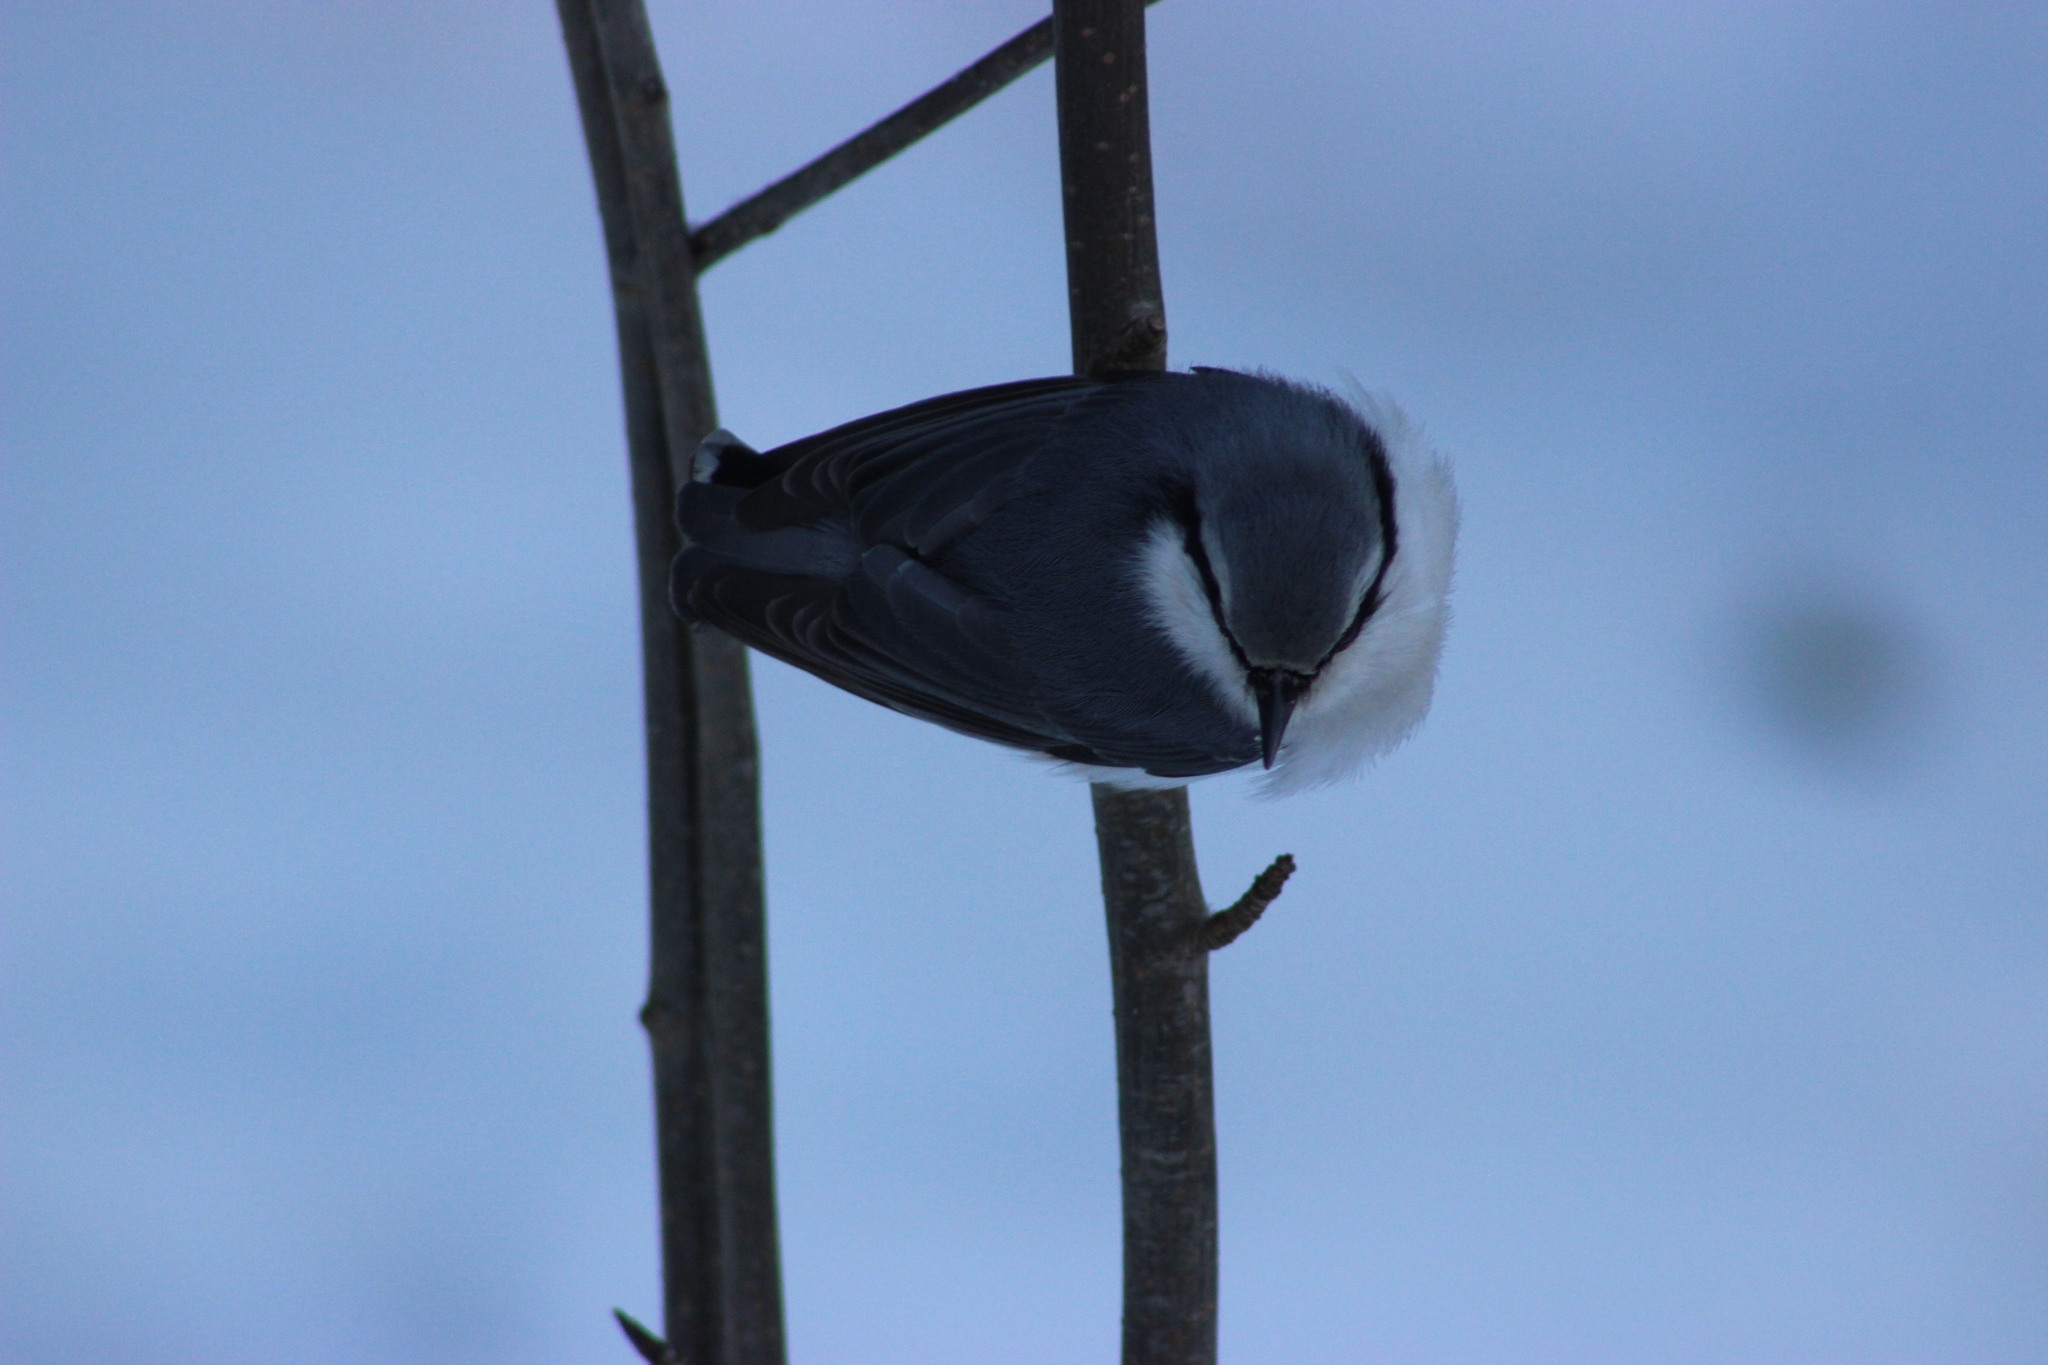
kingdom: Animalia
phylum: Chordata
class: Aves
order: Passeriformes
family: Sittidae
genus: Sitta
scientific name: Sitta europaea
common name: Eurasian nuthatch
